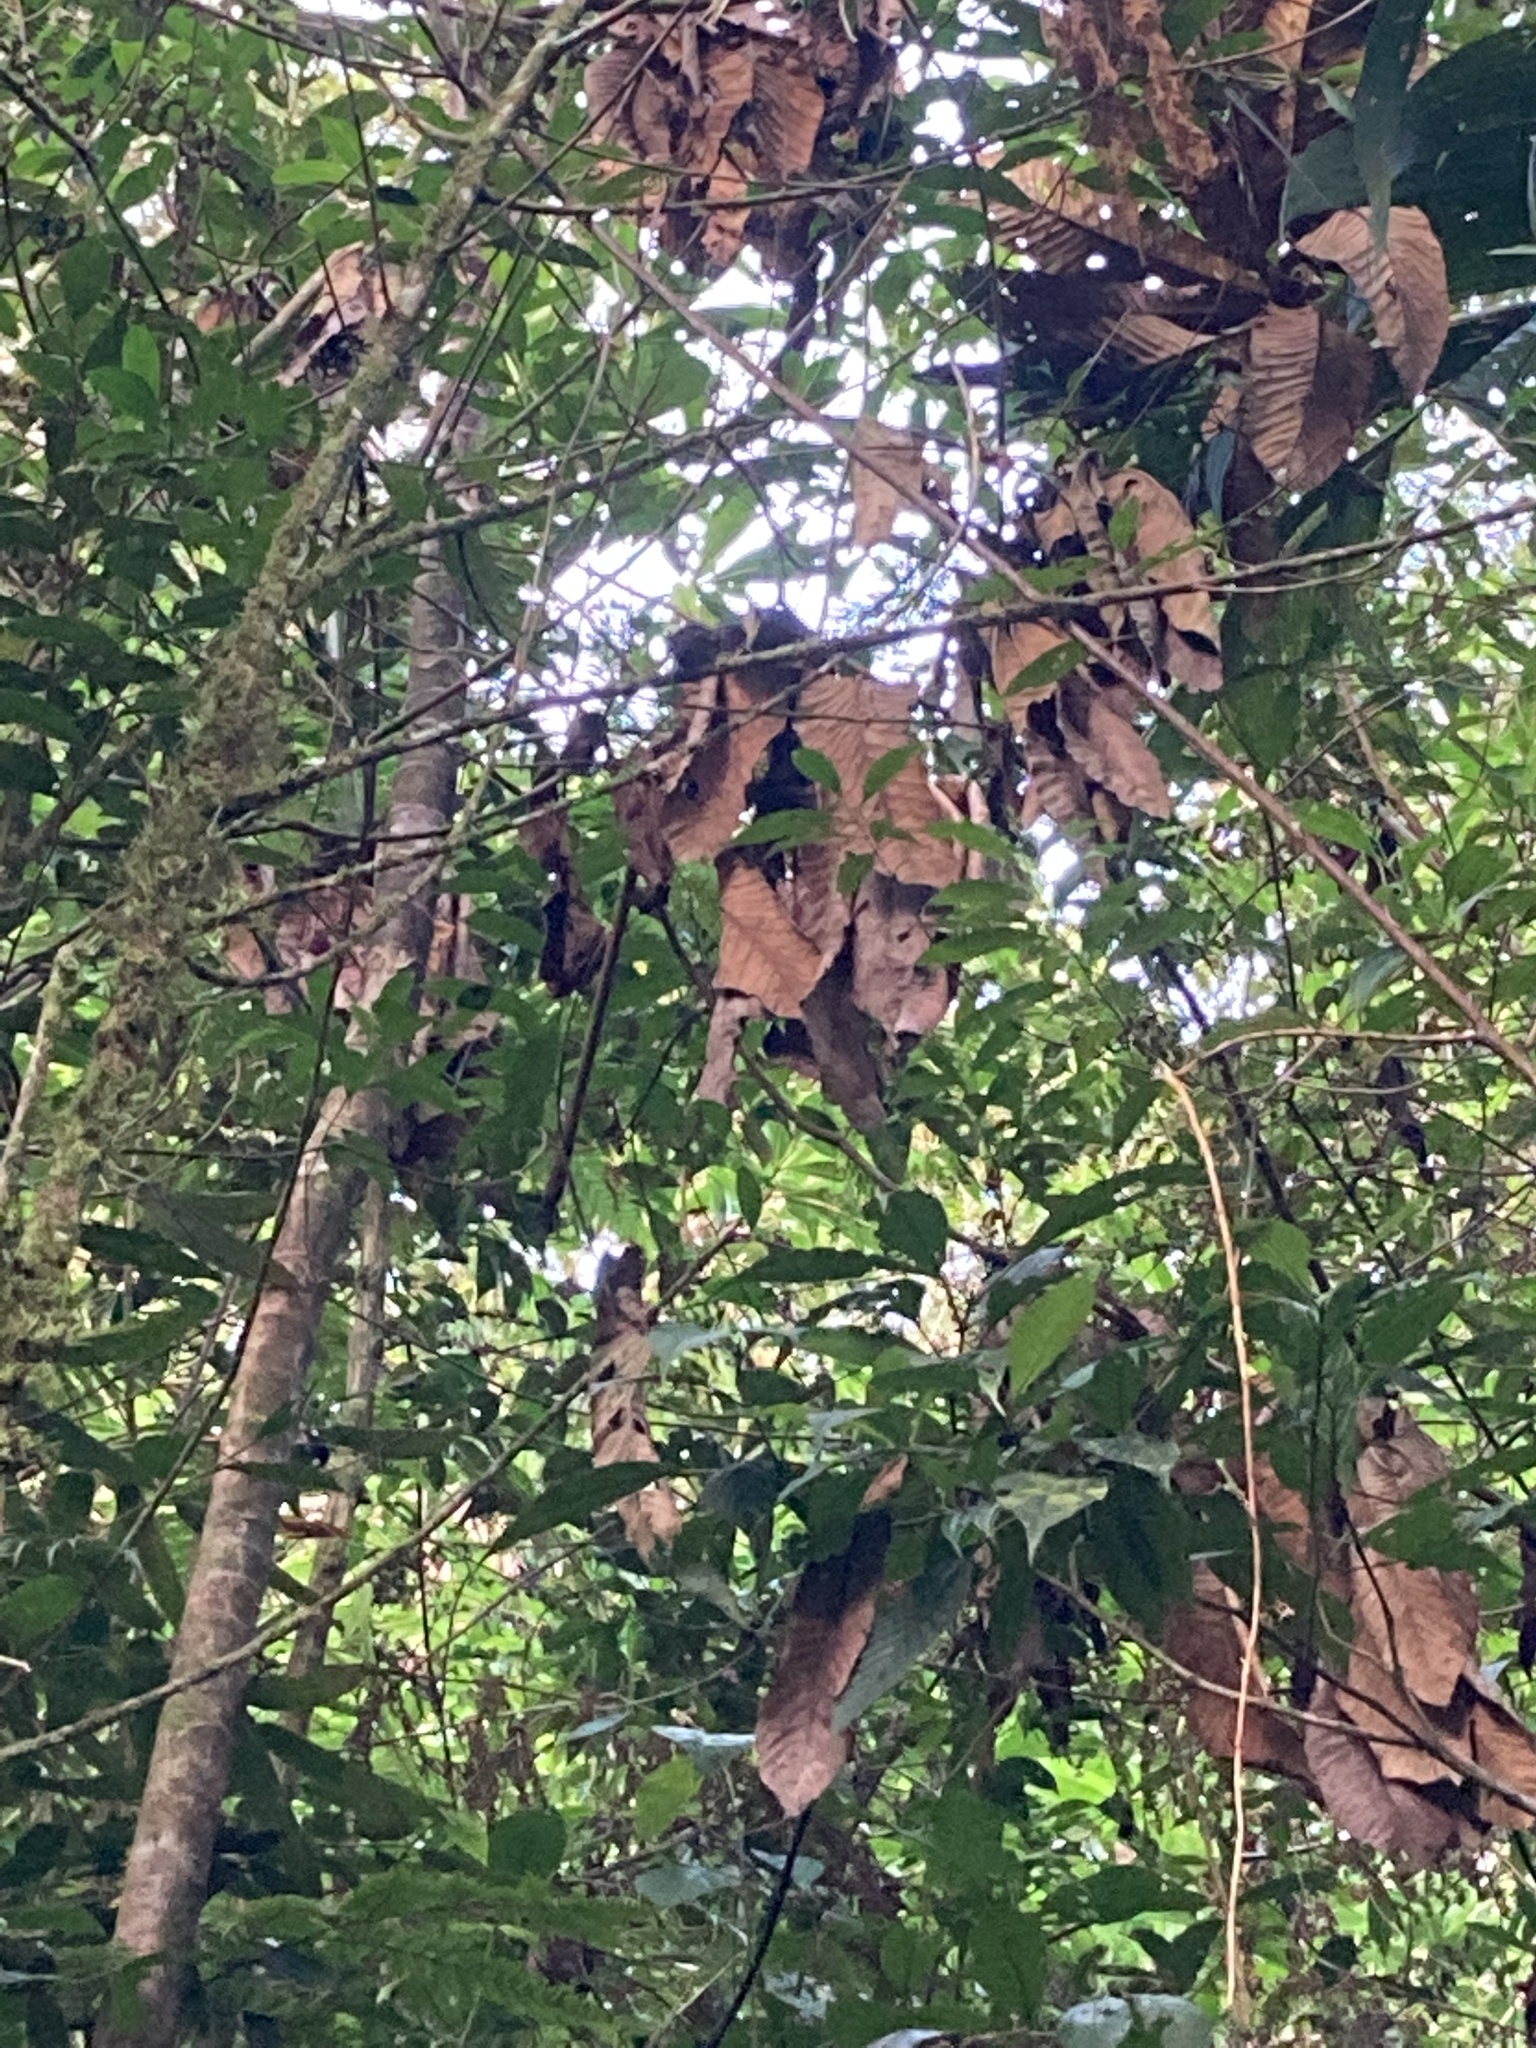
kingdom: Animalia
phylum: Chordata
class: Aves
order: Apodiformes
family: Trochilidae
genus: Basilinna
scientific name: Basilinna leucotis
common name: White-eared hummingbird
